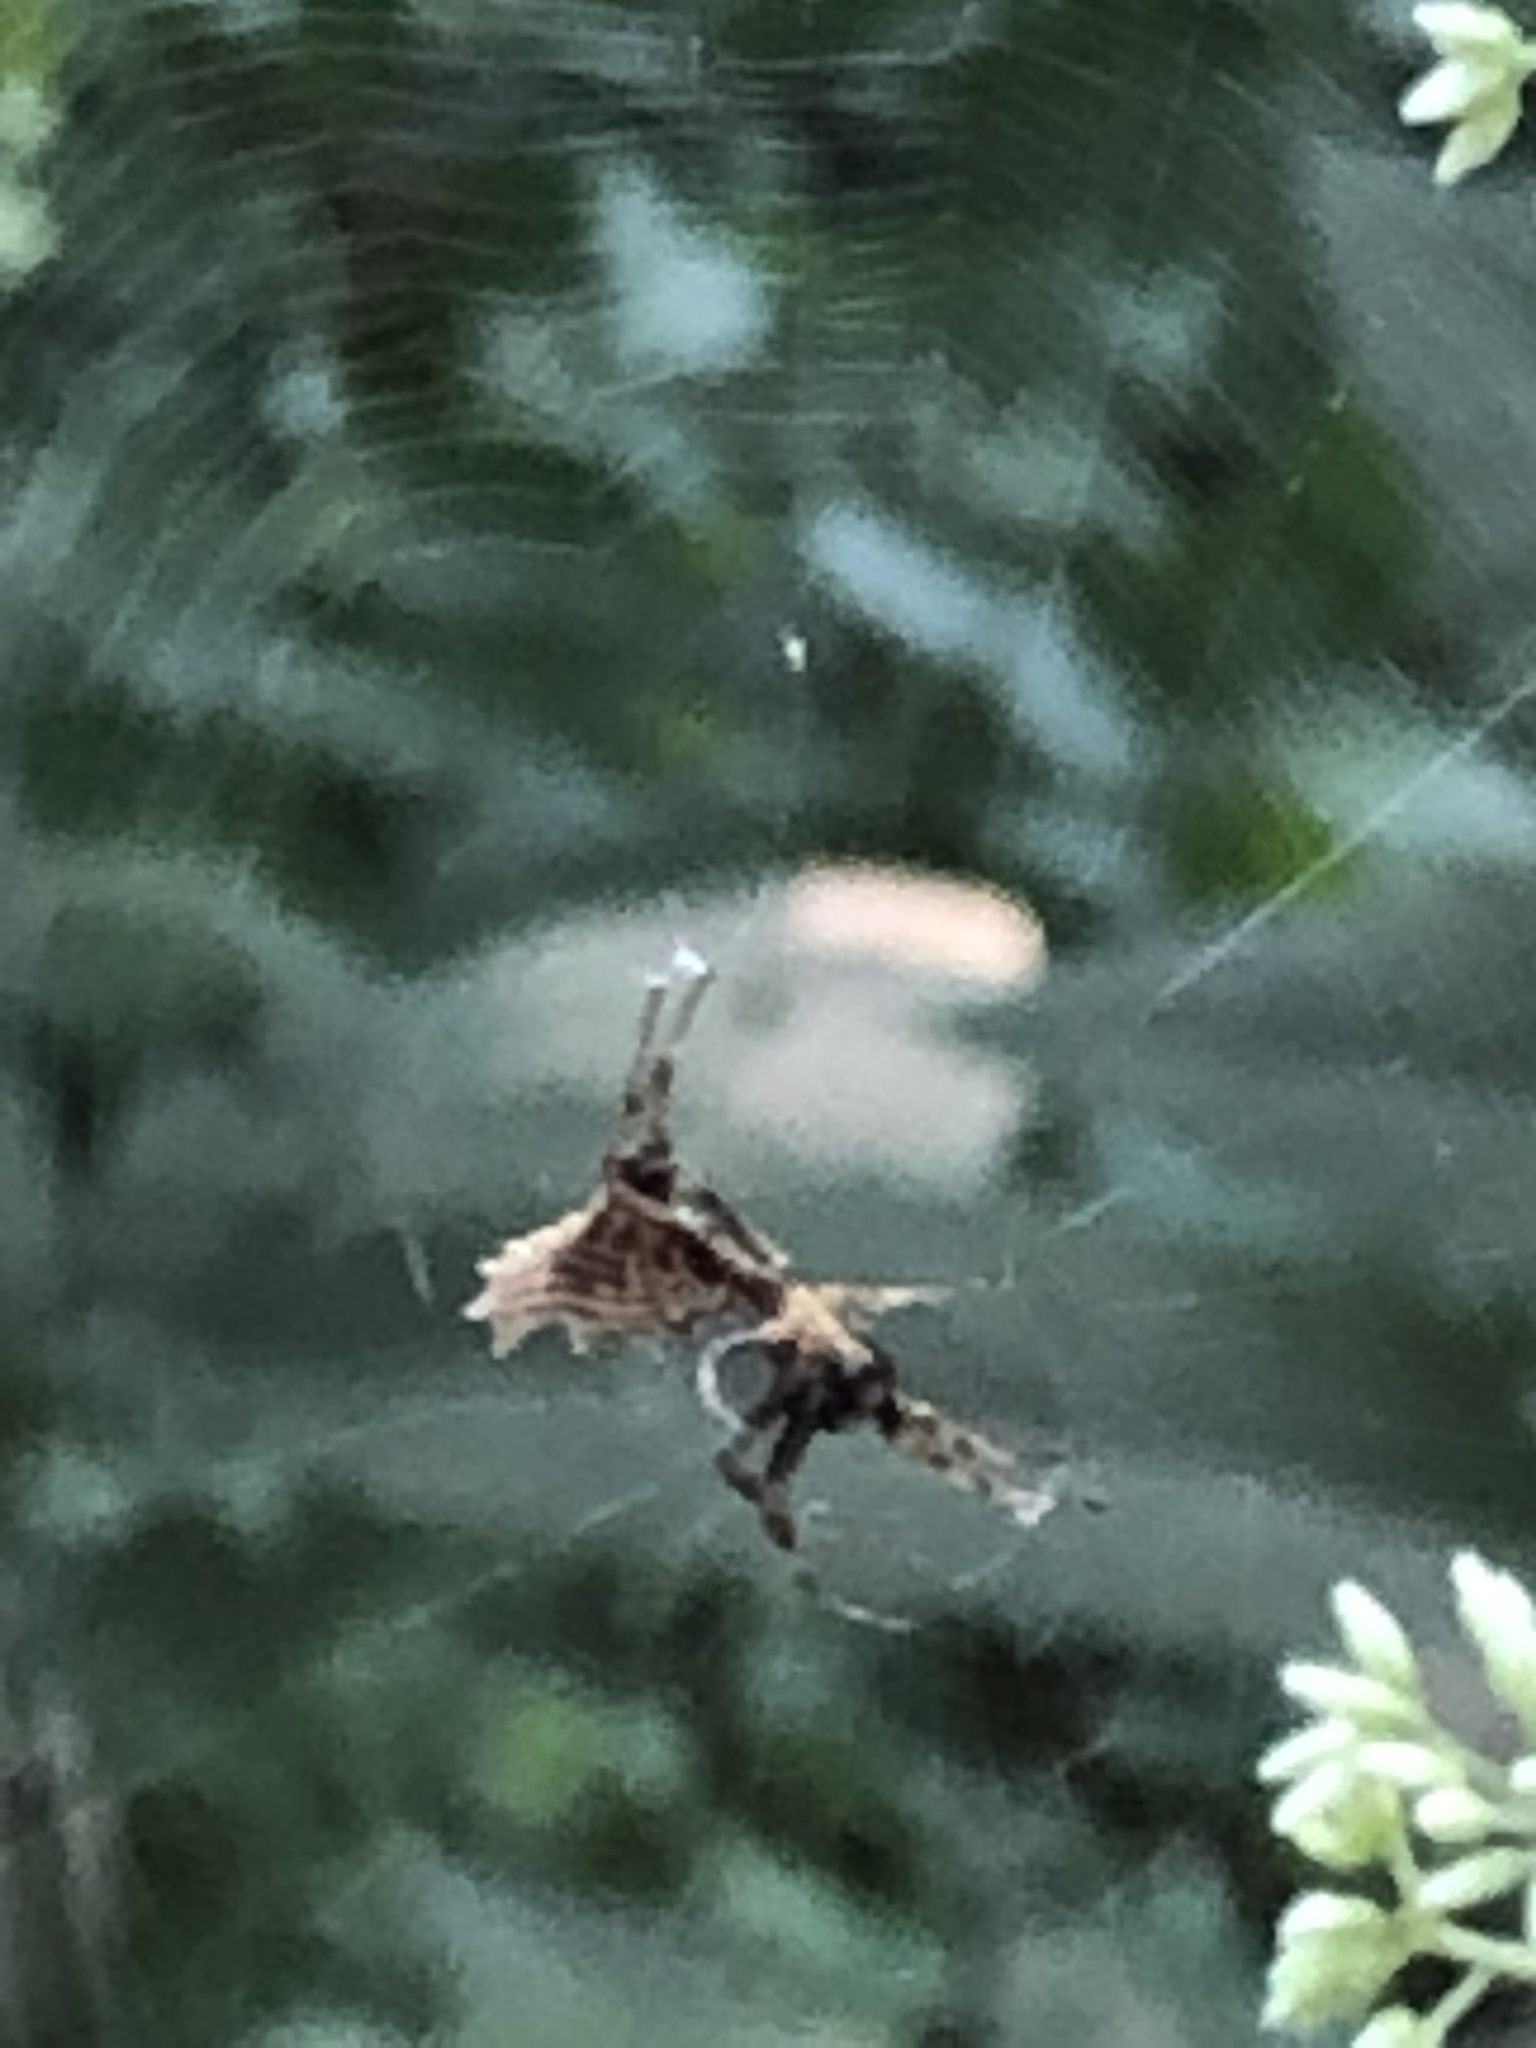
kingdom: Animalia
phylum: Arthropoda
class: Arachnida
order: Araneae
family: Araneidae
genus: Micrathena
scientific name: Micrathena gracilis
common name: Orb weavers
